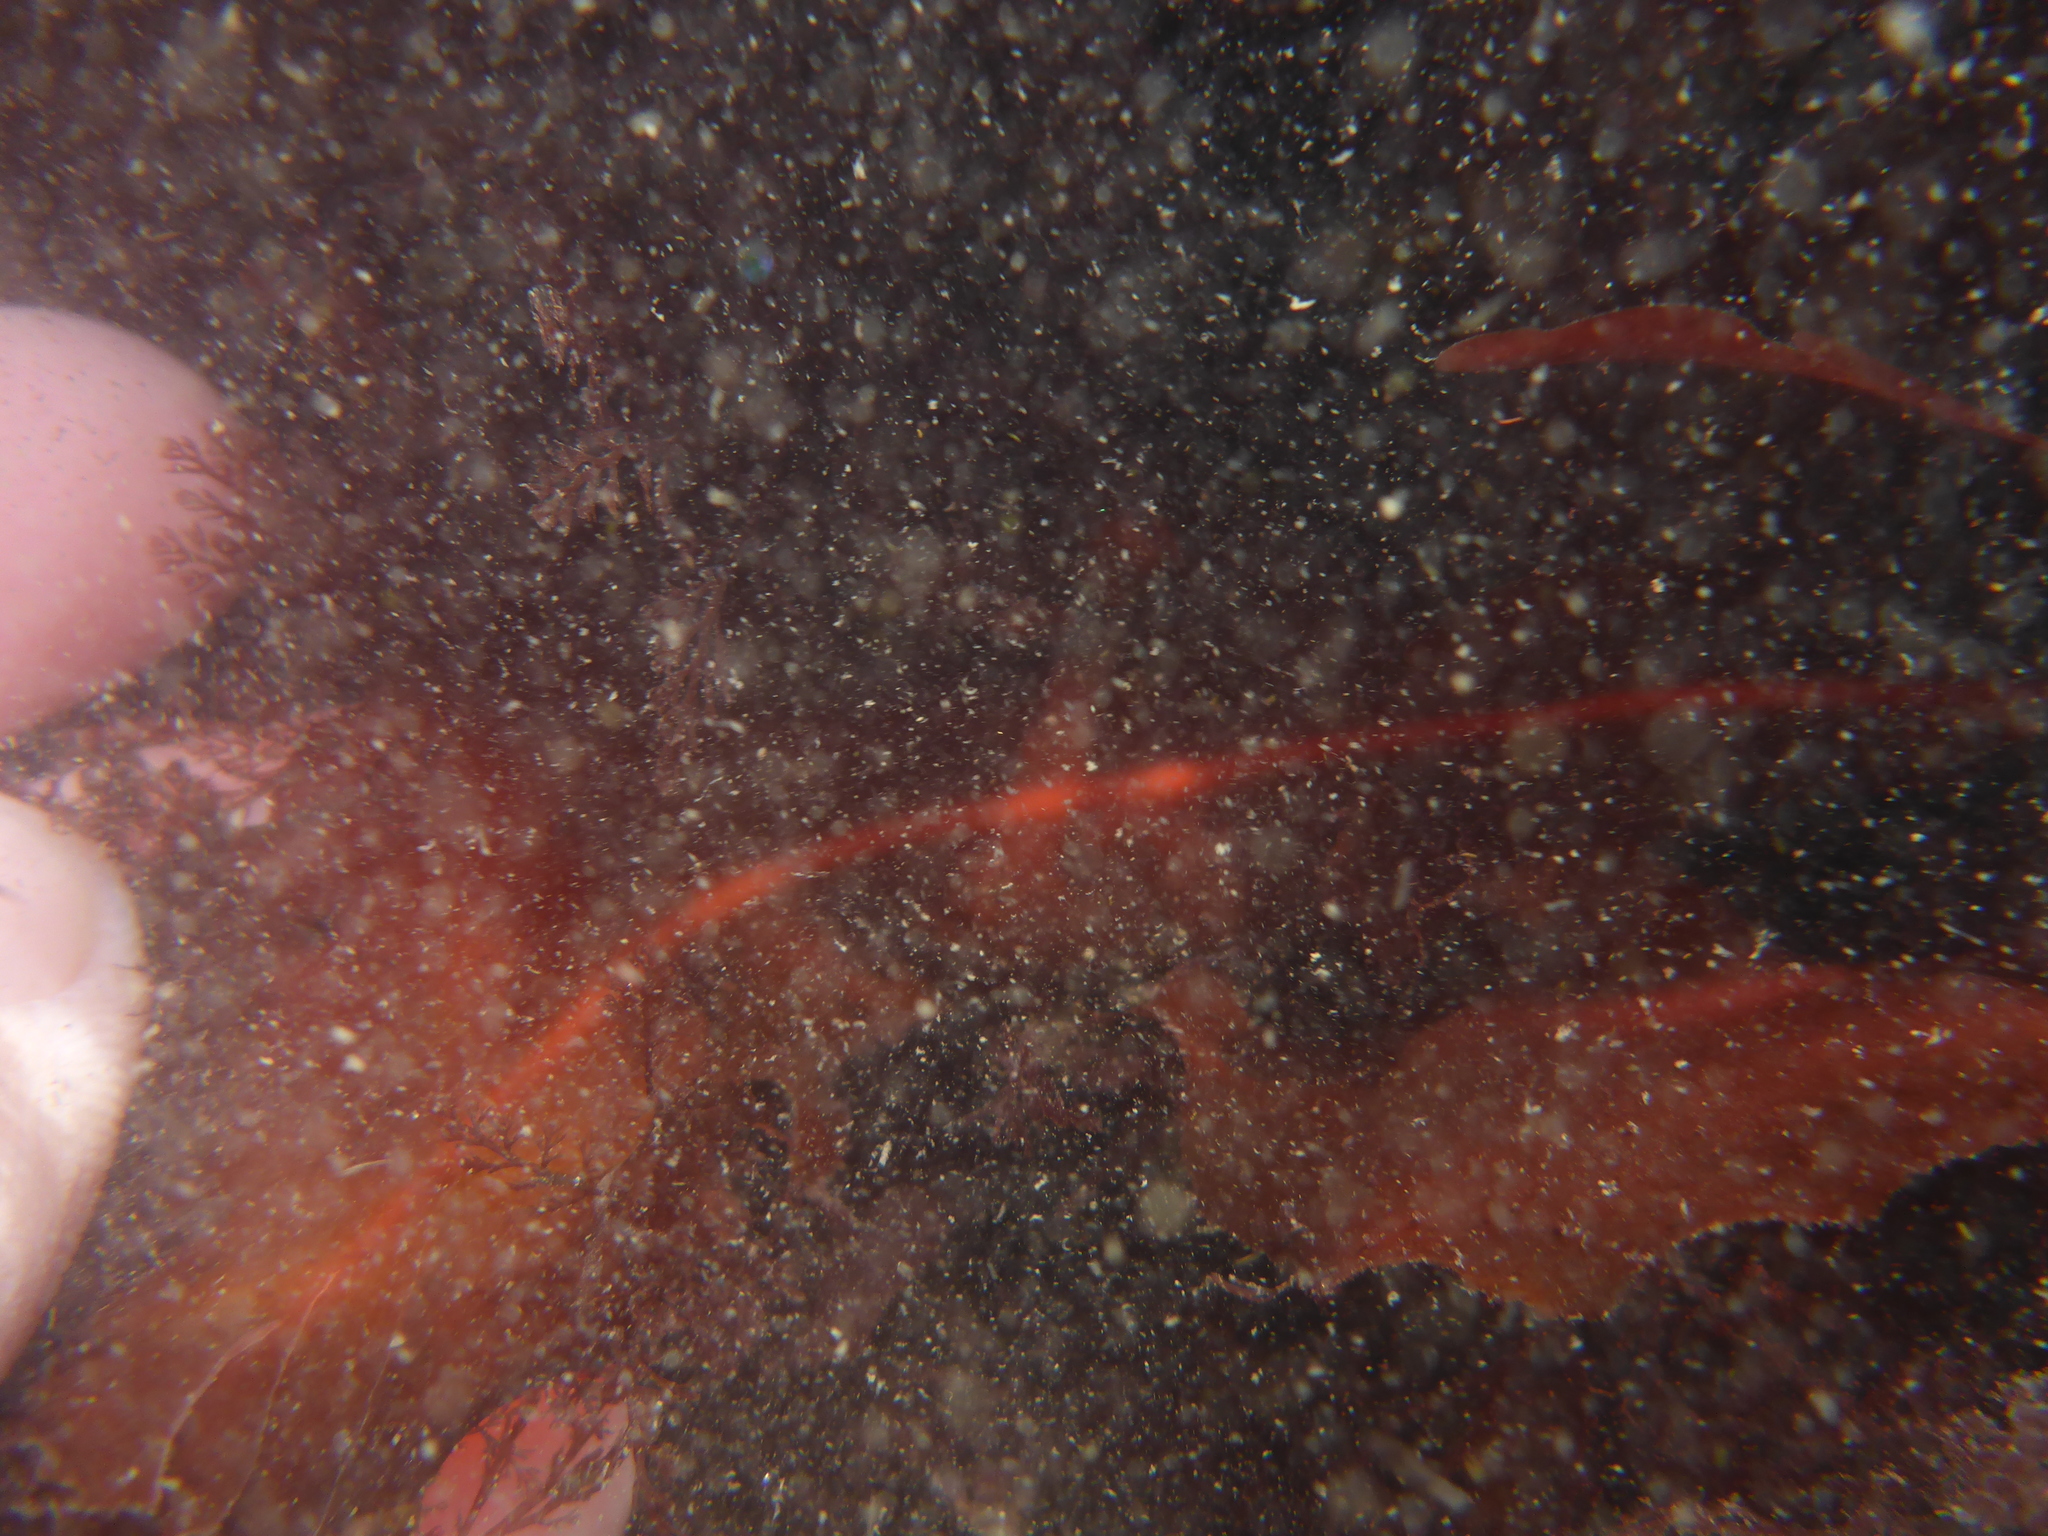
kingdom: Plantae
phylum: Rhodophyta
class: Florideophyceae
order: Gigartinales
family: Kallymeniaceae
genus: Erythrophyllum
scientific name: Erythrophyllum delesserioides
